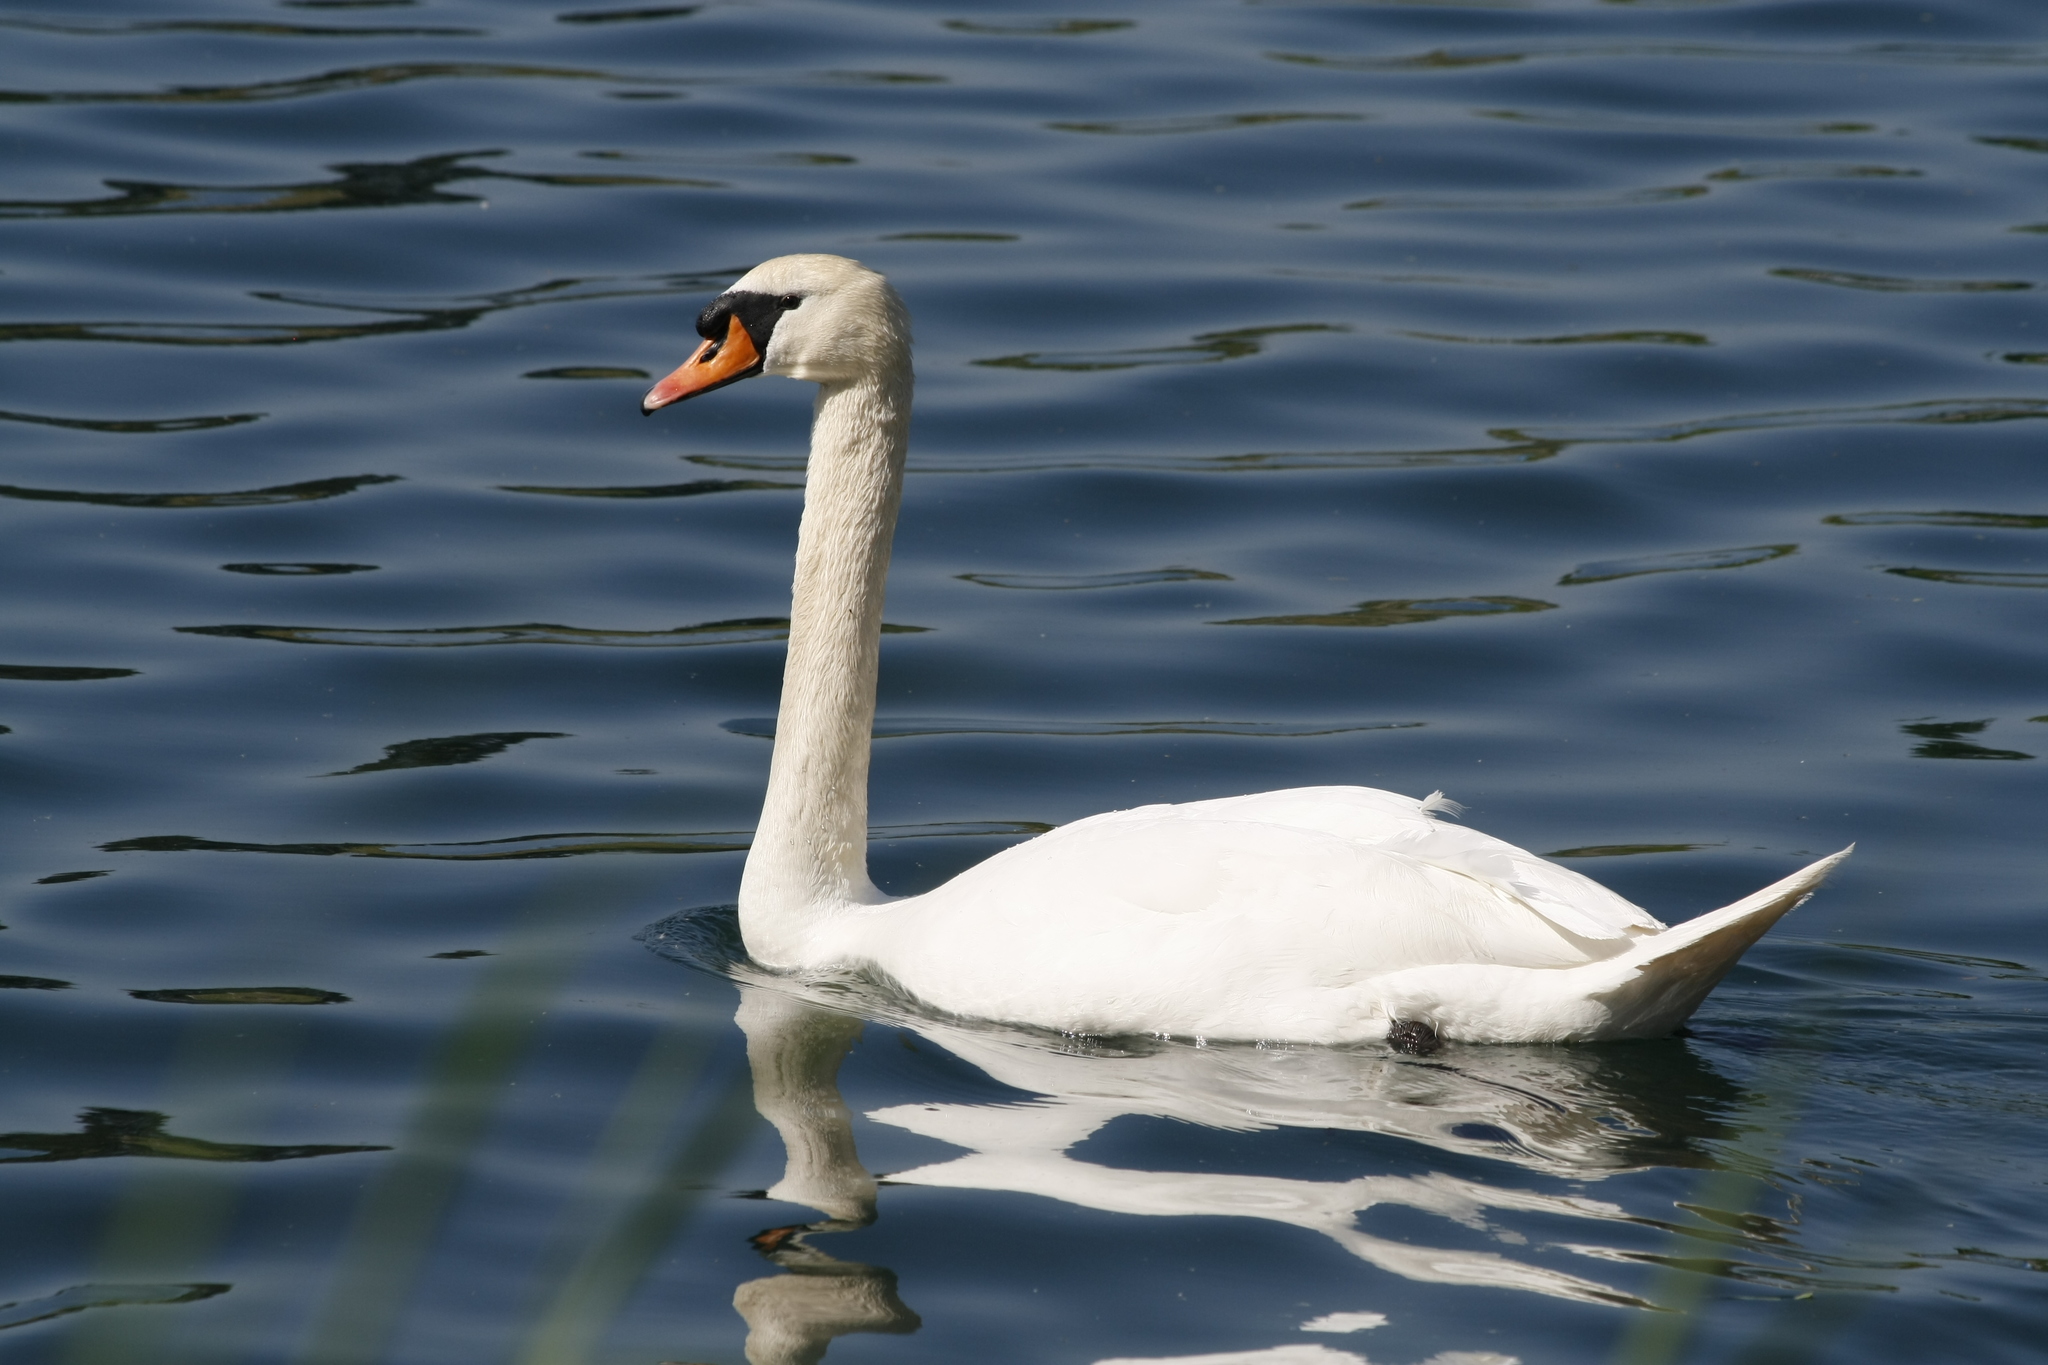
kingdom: Animalia
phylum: Chordata
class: Aves
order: Anseriformes
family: Anatidae
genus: Cygnus
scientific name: Cygnus olor
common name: Mute swan
